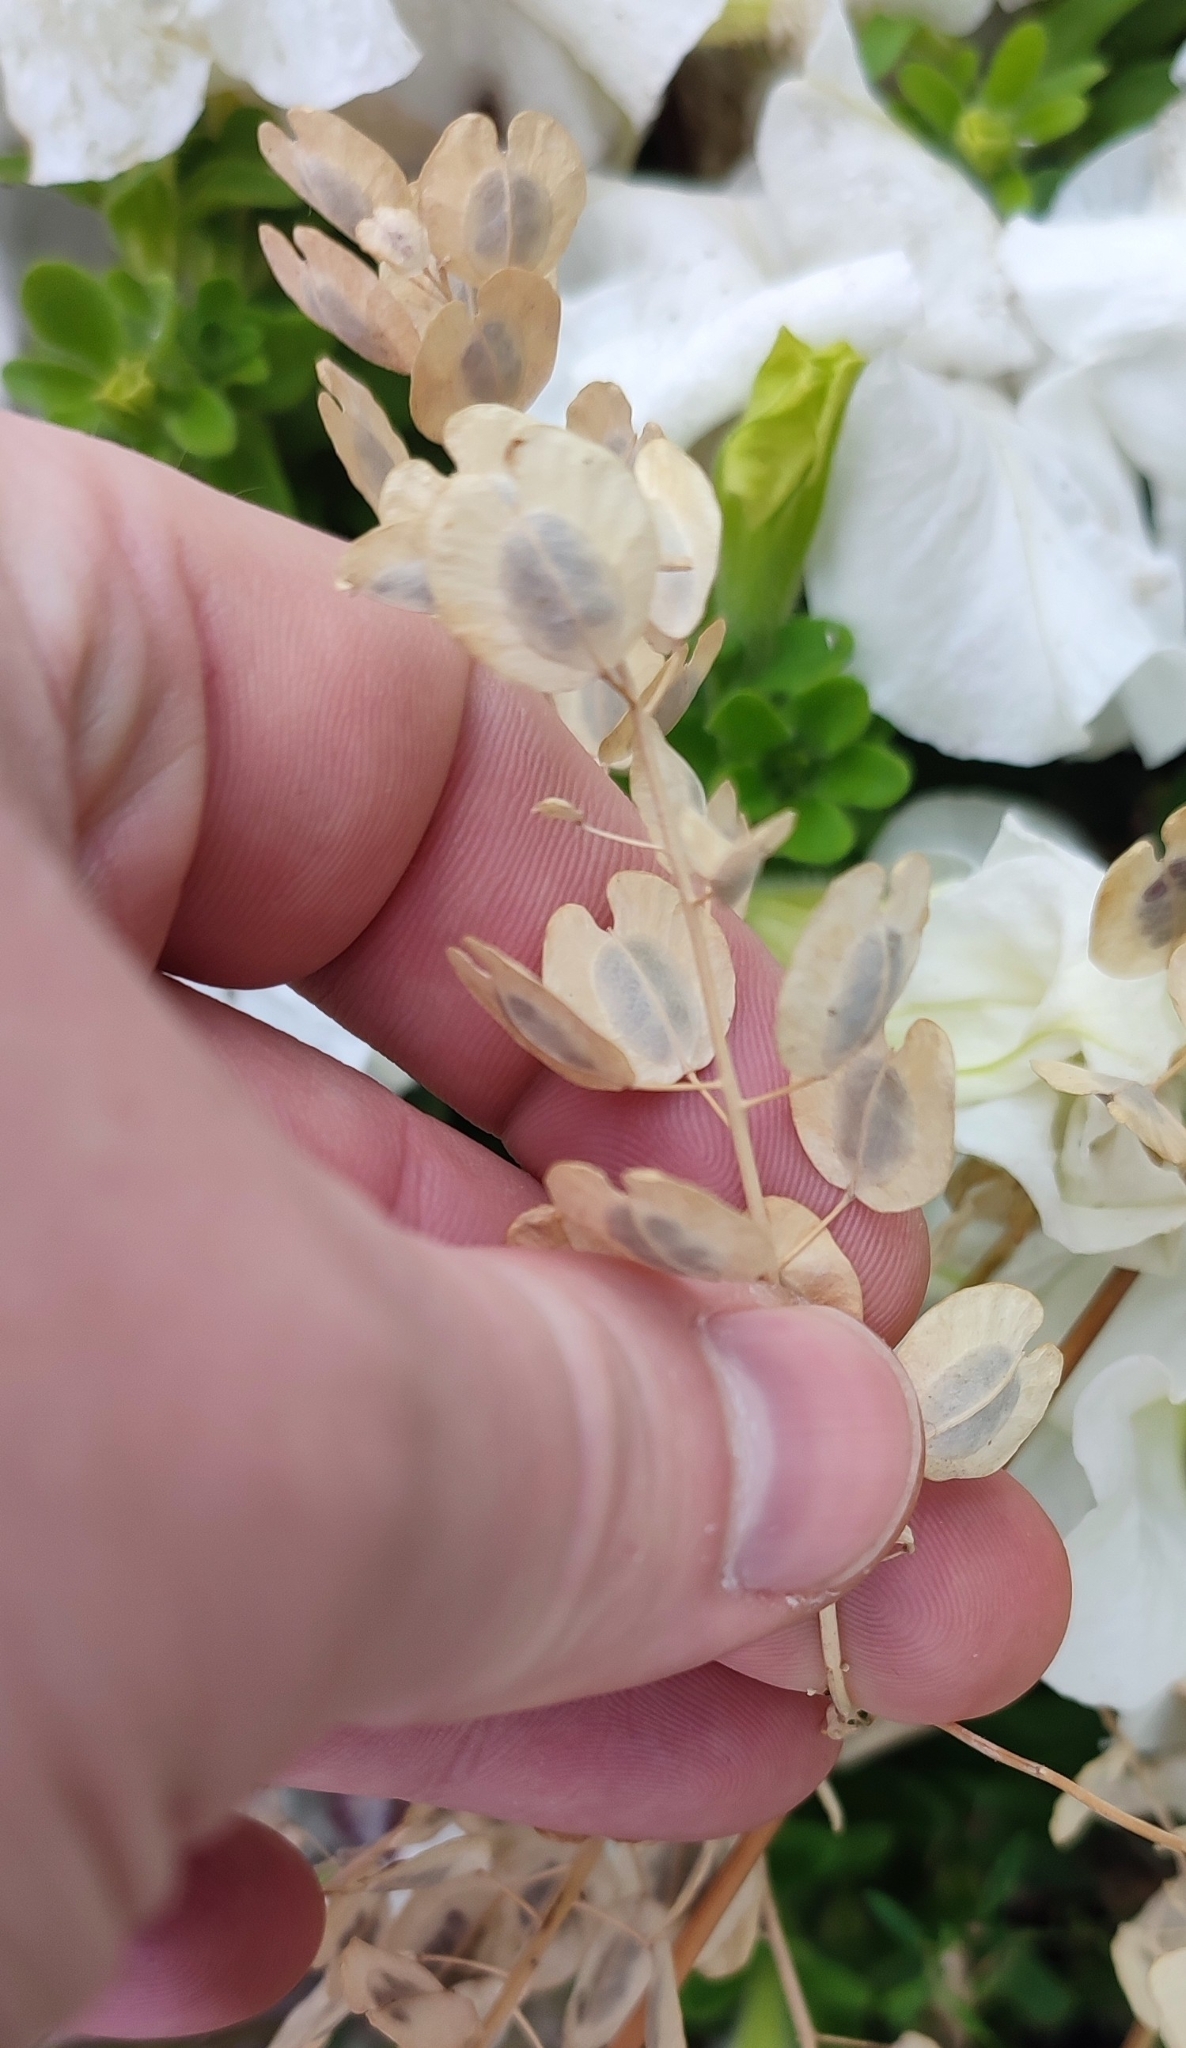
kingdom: Plantae
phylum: Tracheophyta
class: Magnoliopsida
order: Brassicales
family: Brassicaceae
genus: Thlaspi
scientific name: Thlaspi arvense
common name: Field pennycress
